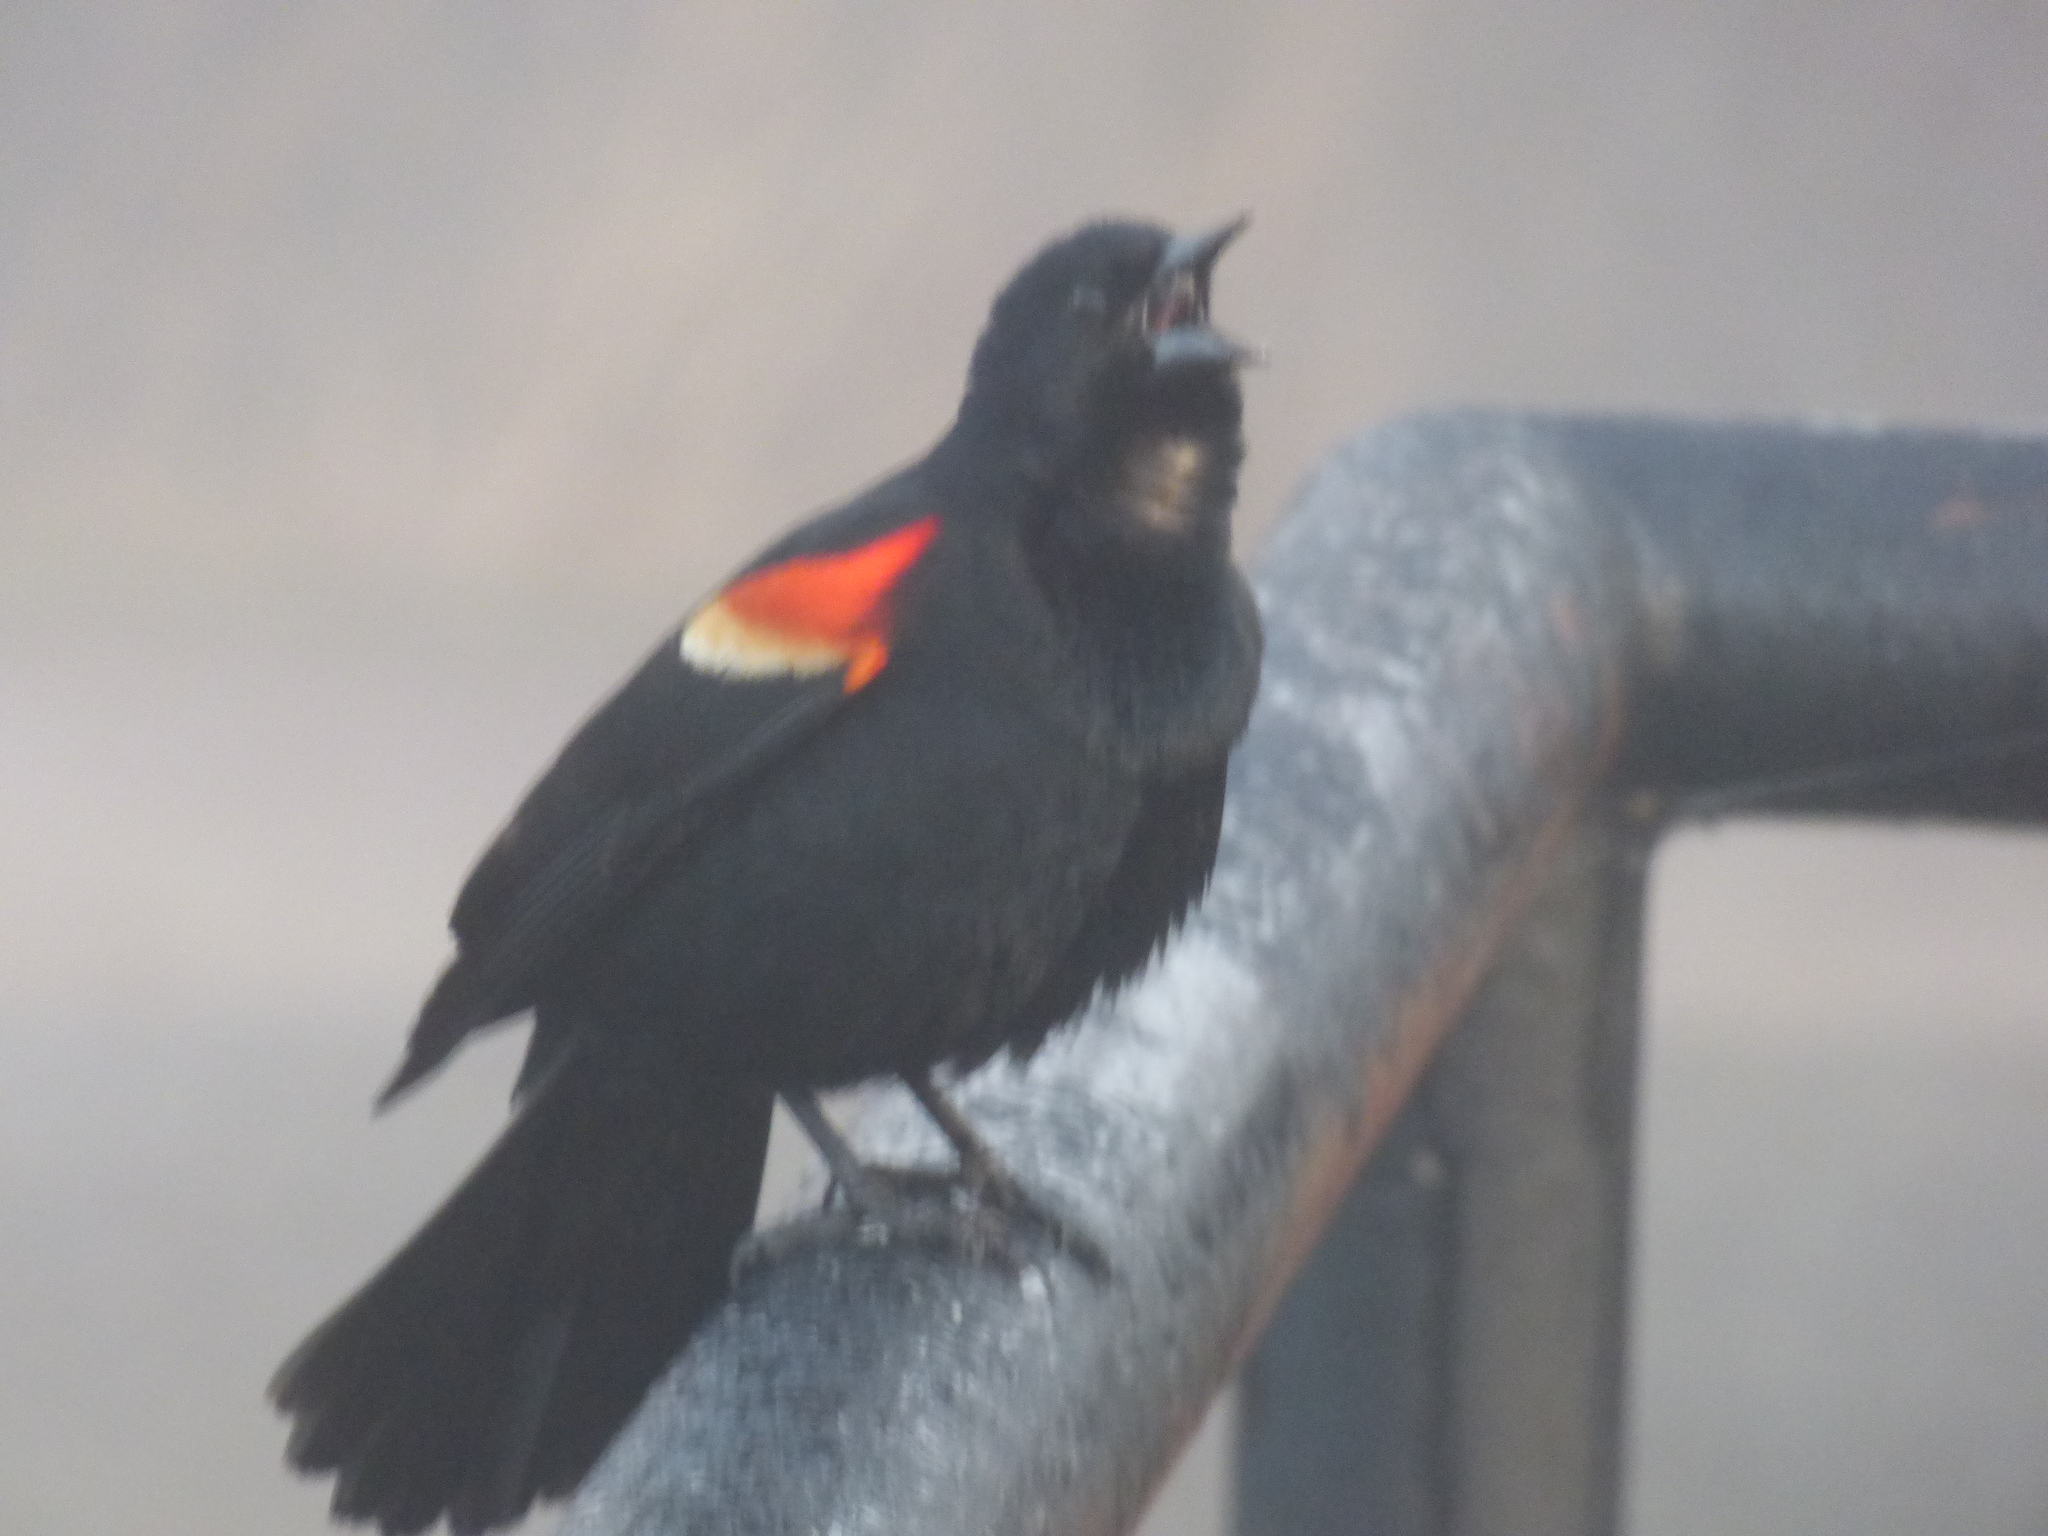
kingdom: Animalia
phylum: Chordata
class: Aves
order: Passeriformes
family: Icteridae
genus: Agelaius
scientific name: Agelaius phoeniceus
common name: Red-winged blackbird
